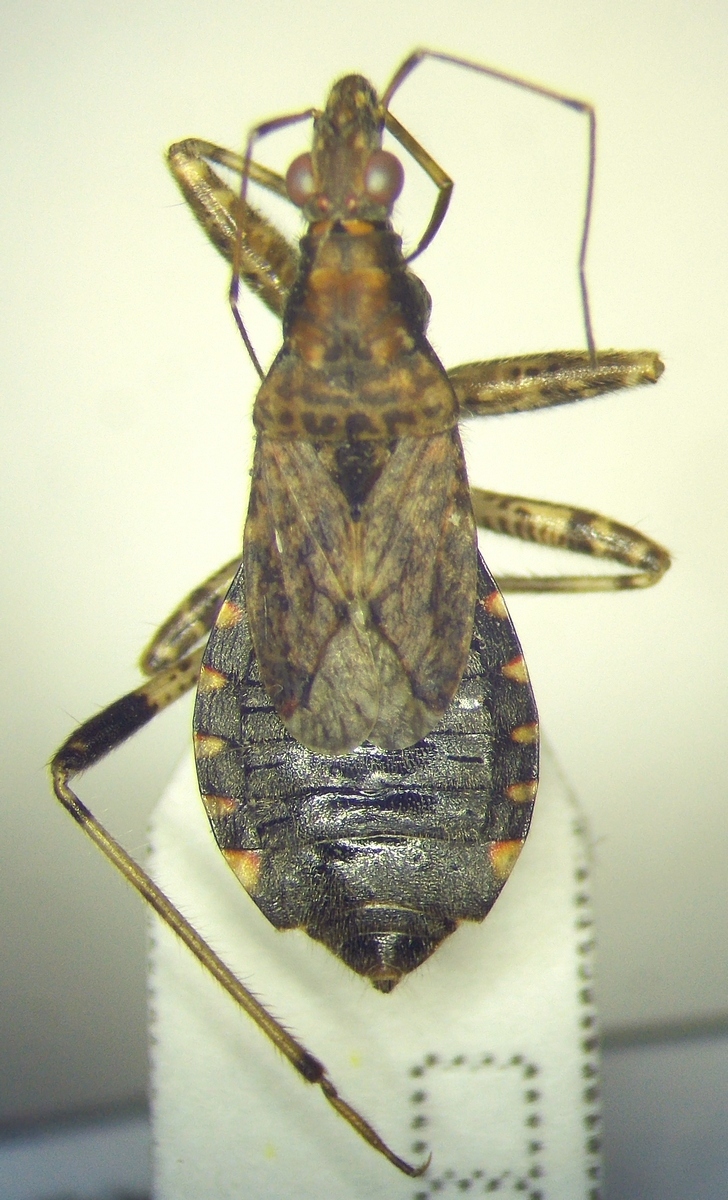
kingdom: Animalia
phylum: Arthropoda
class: Insecta
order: Hemiptera
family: Nabidae
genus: Himacerus
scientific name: Himacerus mirmicoides
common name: Ant damsel bug
